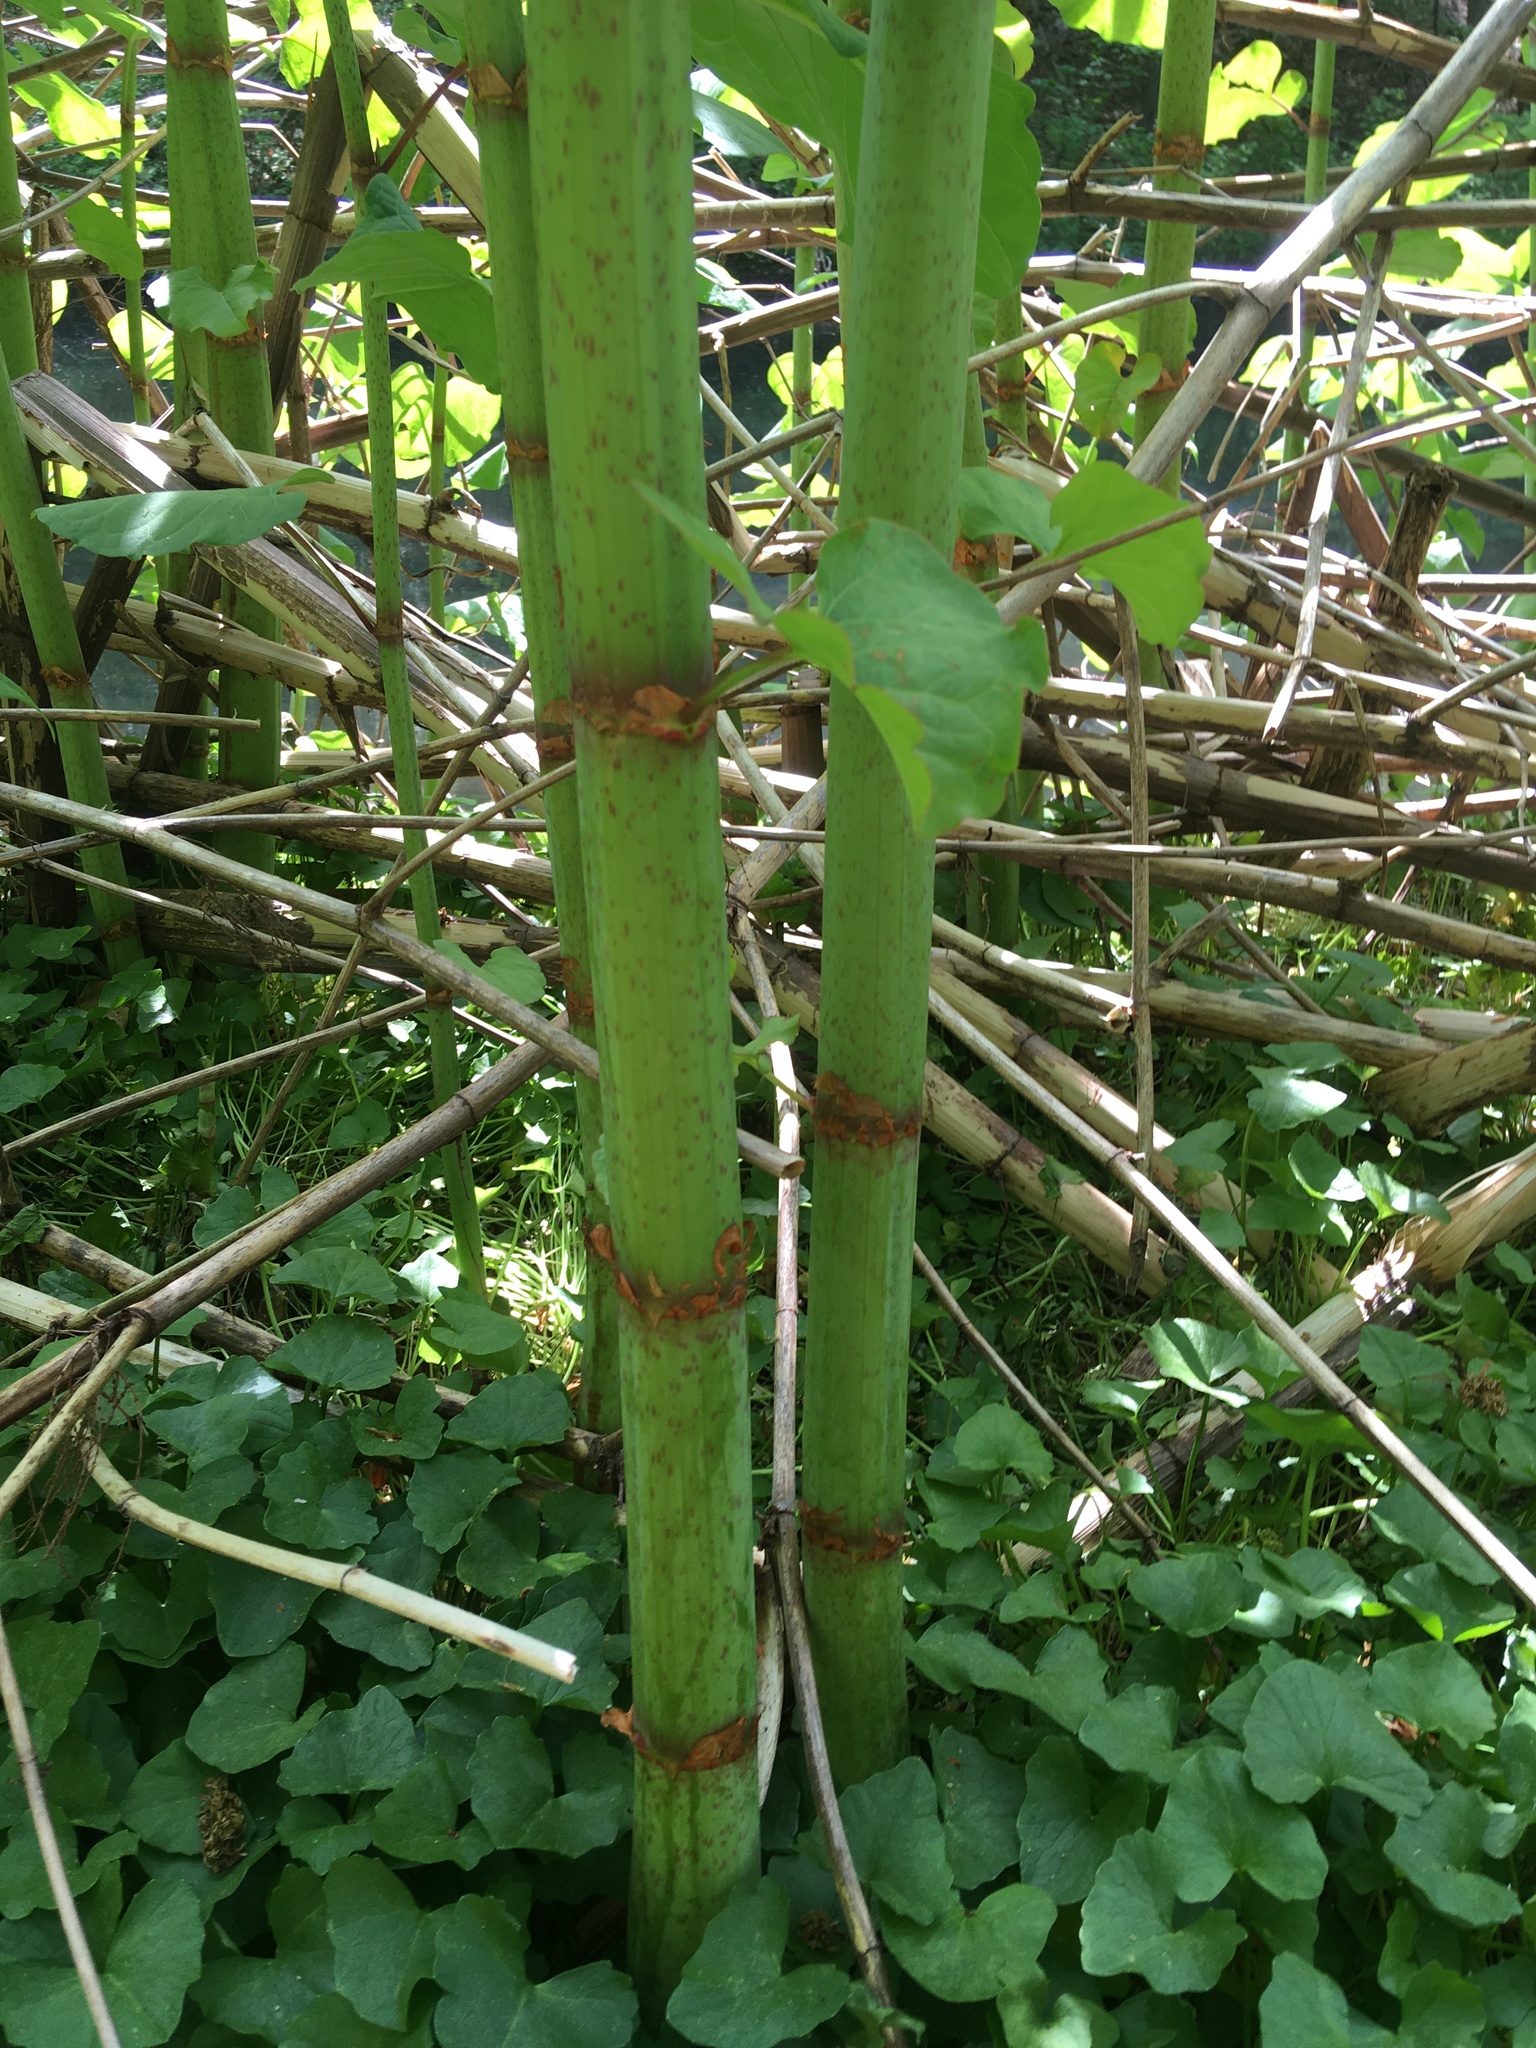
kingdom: Plantae
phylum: Tracheophyta
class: Magnoliopsida
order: Caryophyllales
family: Polygonaceae
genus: Reynoutria
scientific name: Reynoutria japonica
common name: Japanese knotweed
